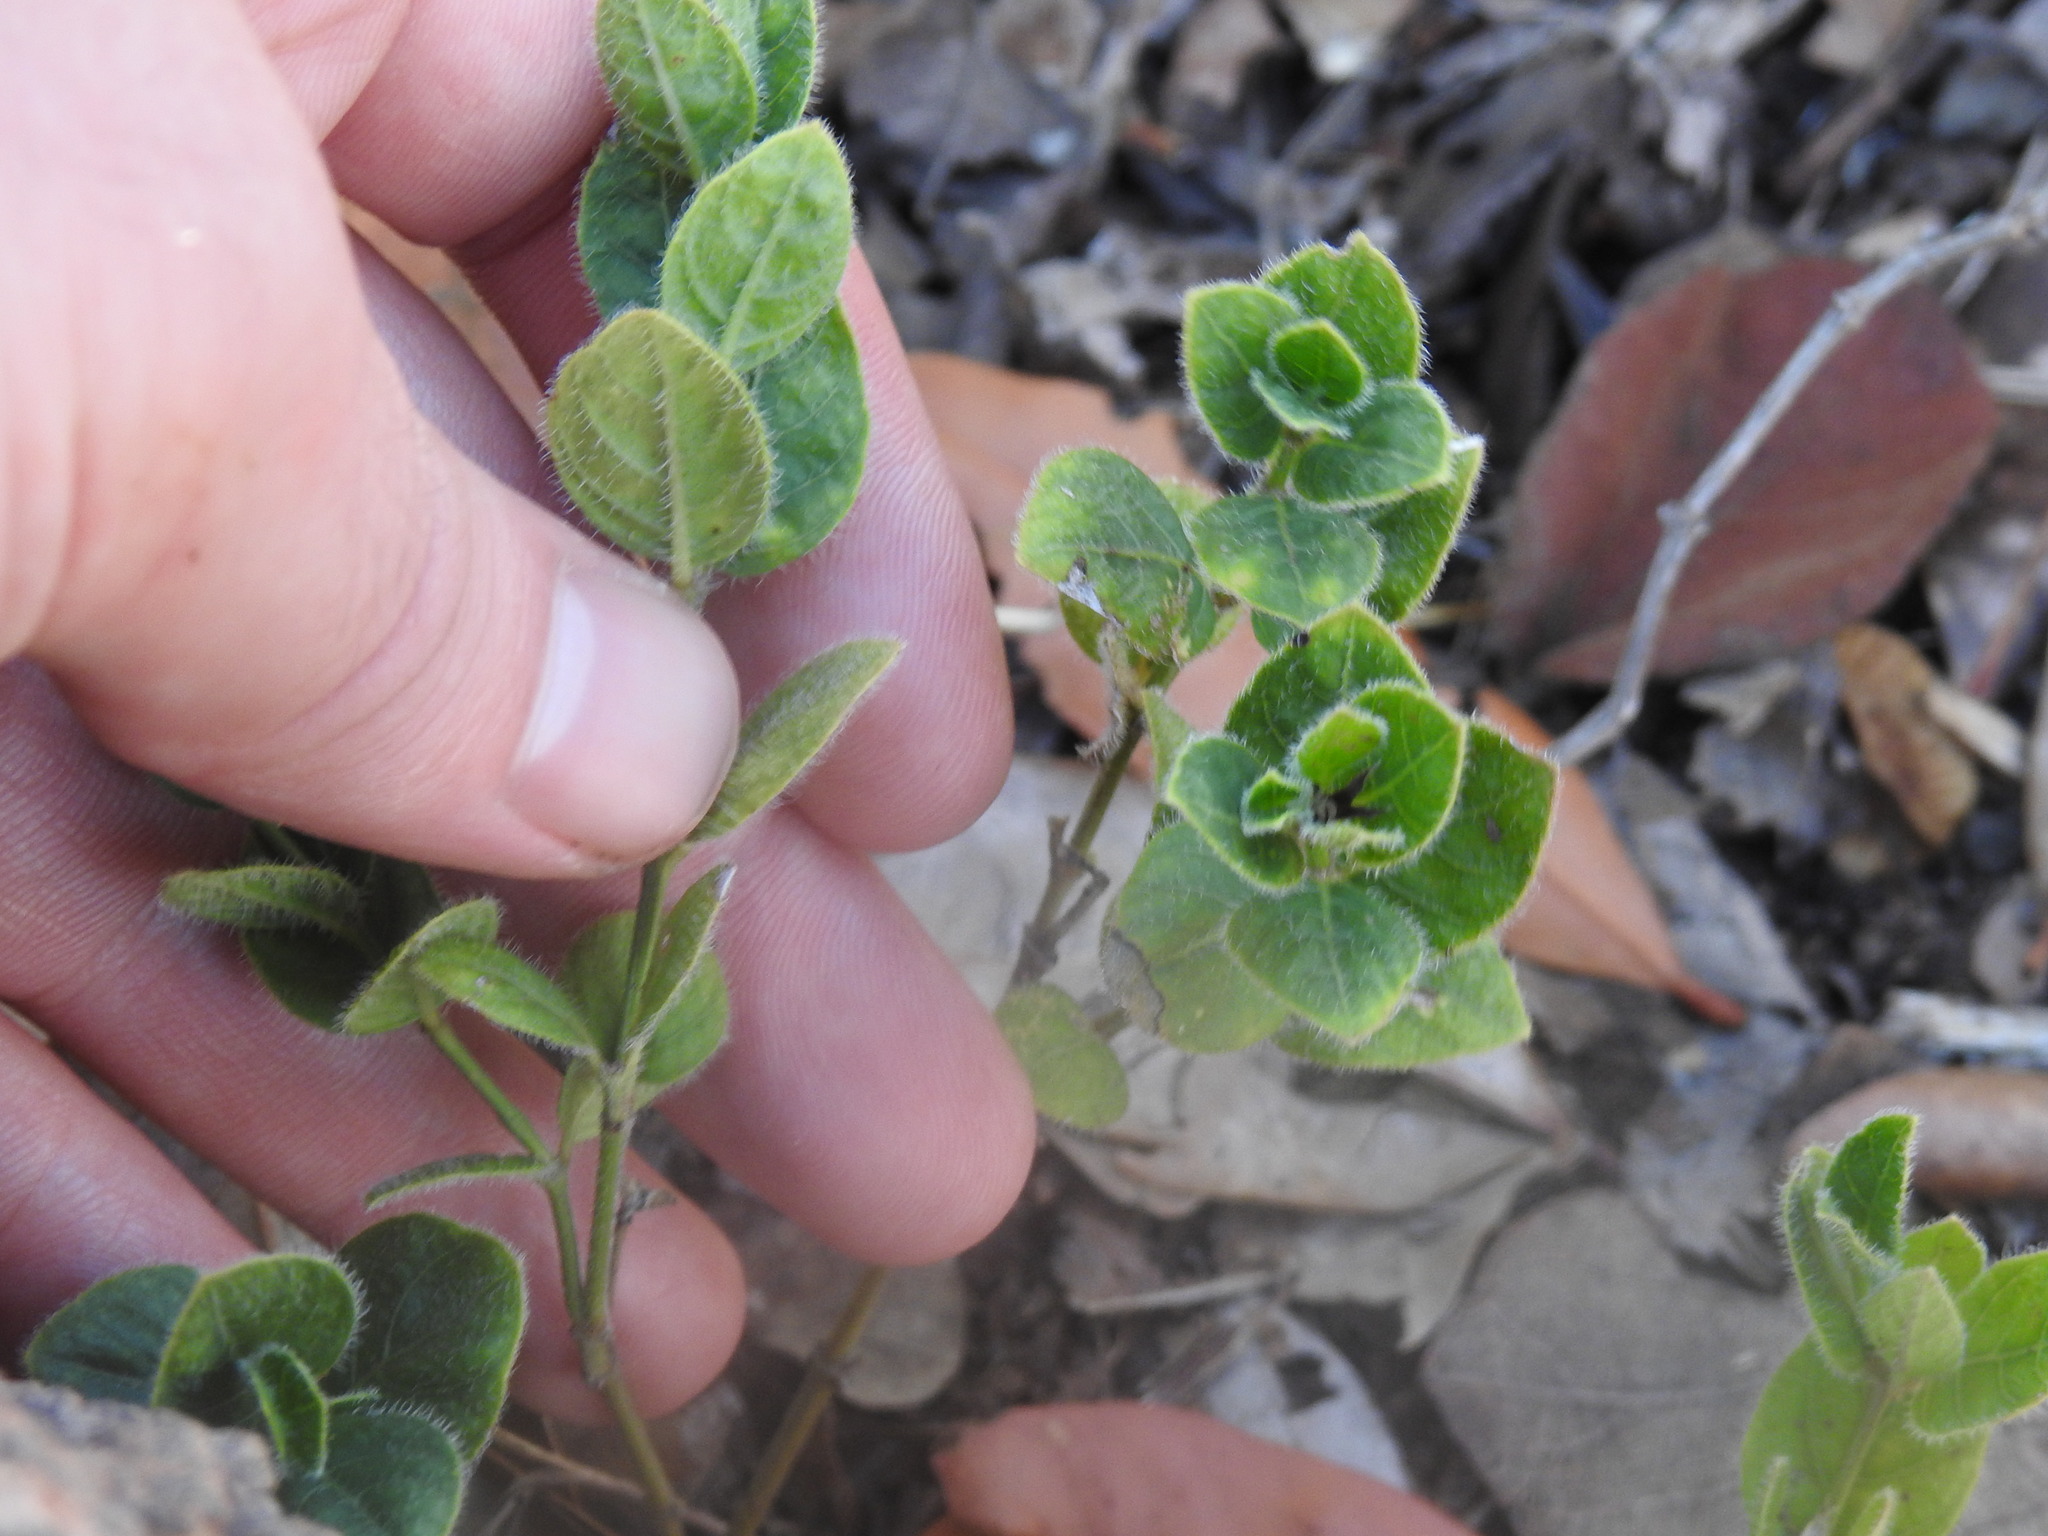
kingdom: Plantae
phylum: Tracheophyta
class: Magnoliopsida
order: Lamiales
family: Acanthaceae
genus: Ruellia
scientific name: Ruellia cordata
